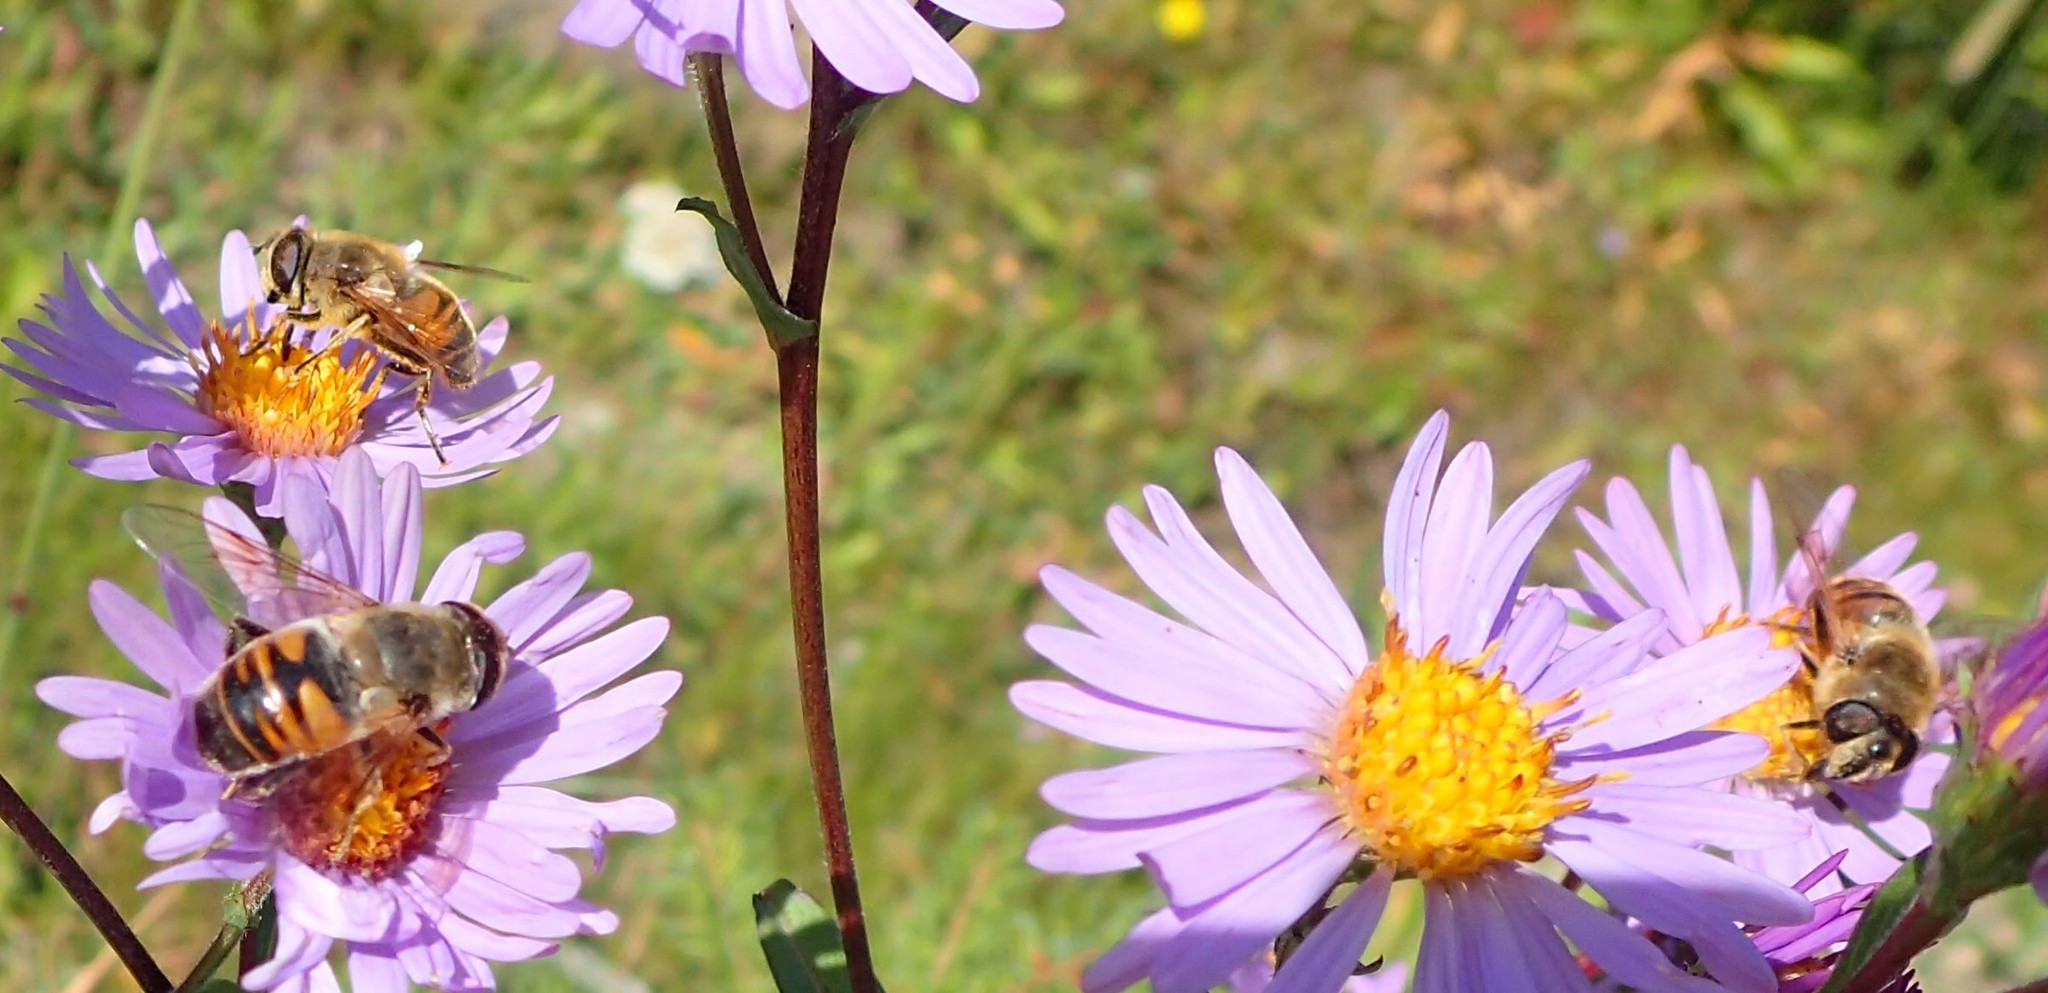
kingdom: Animalia
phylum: Arthropoda
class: Insecta
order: Diptera
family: Syrphidae
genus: Eristalis
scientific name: Eristalis tenax
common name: Drone fly
